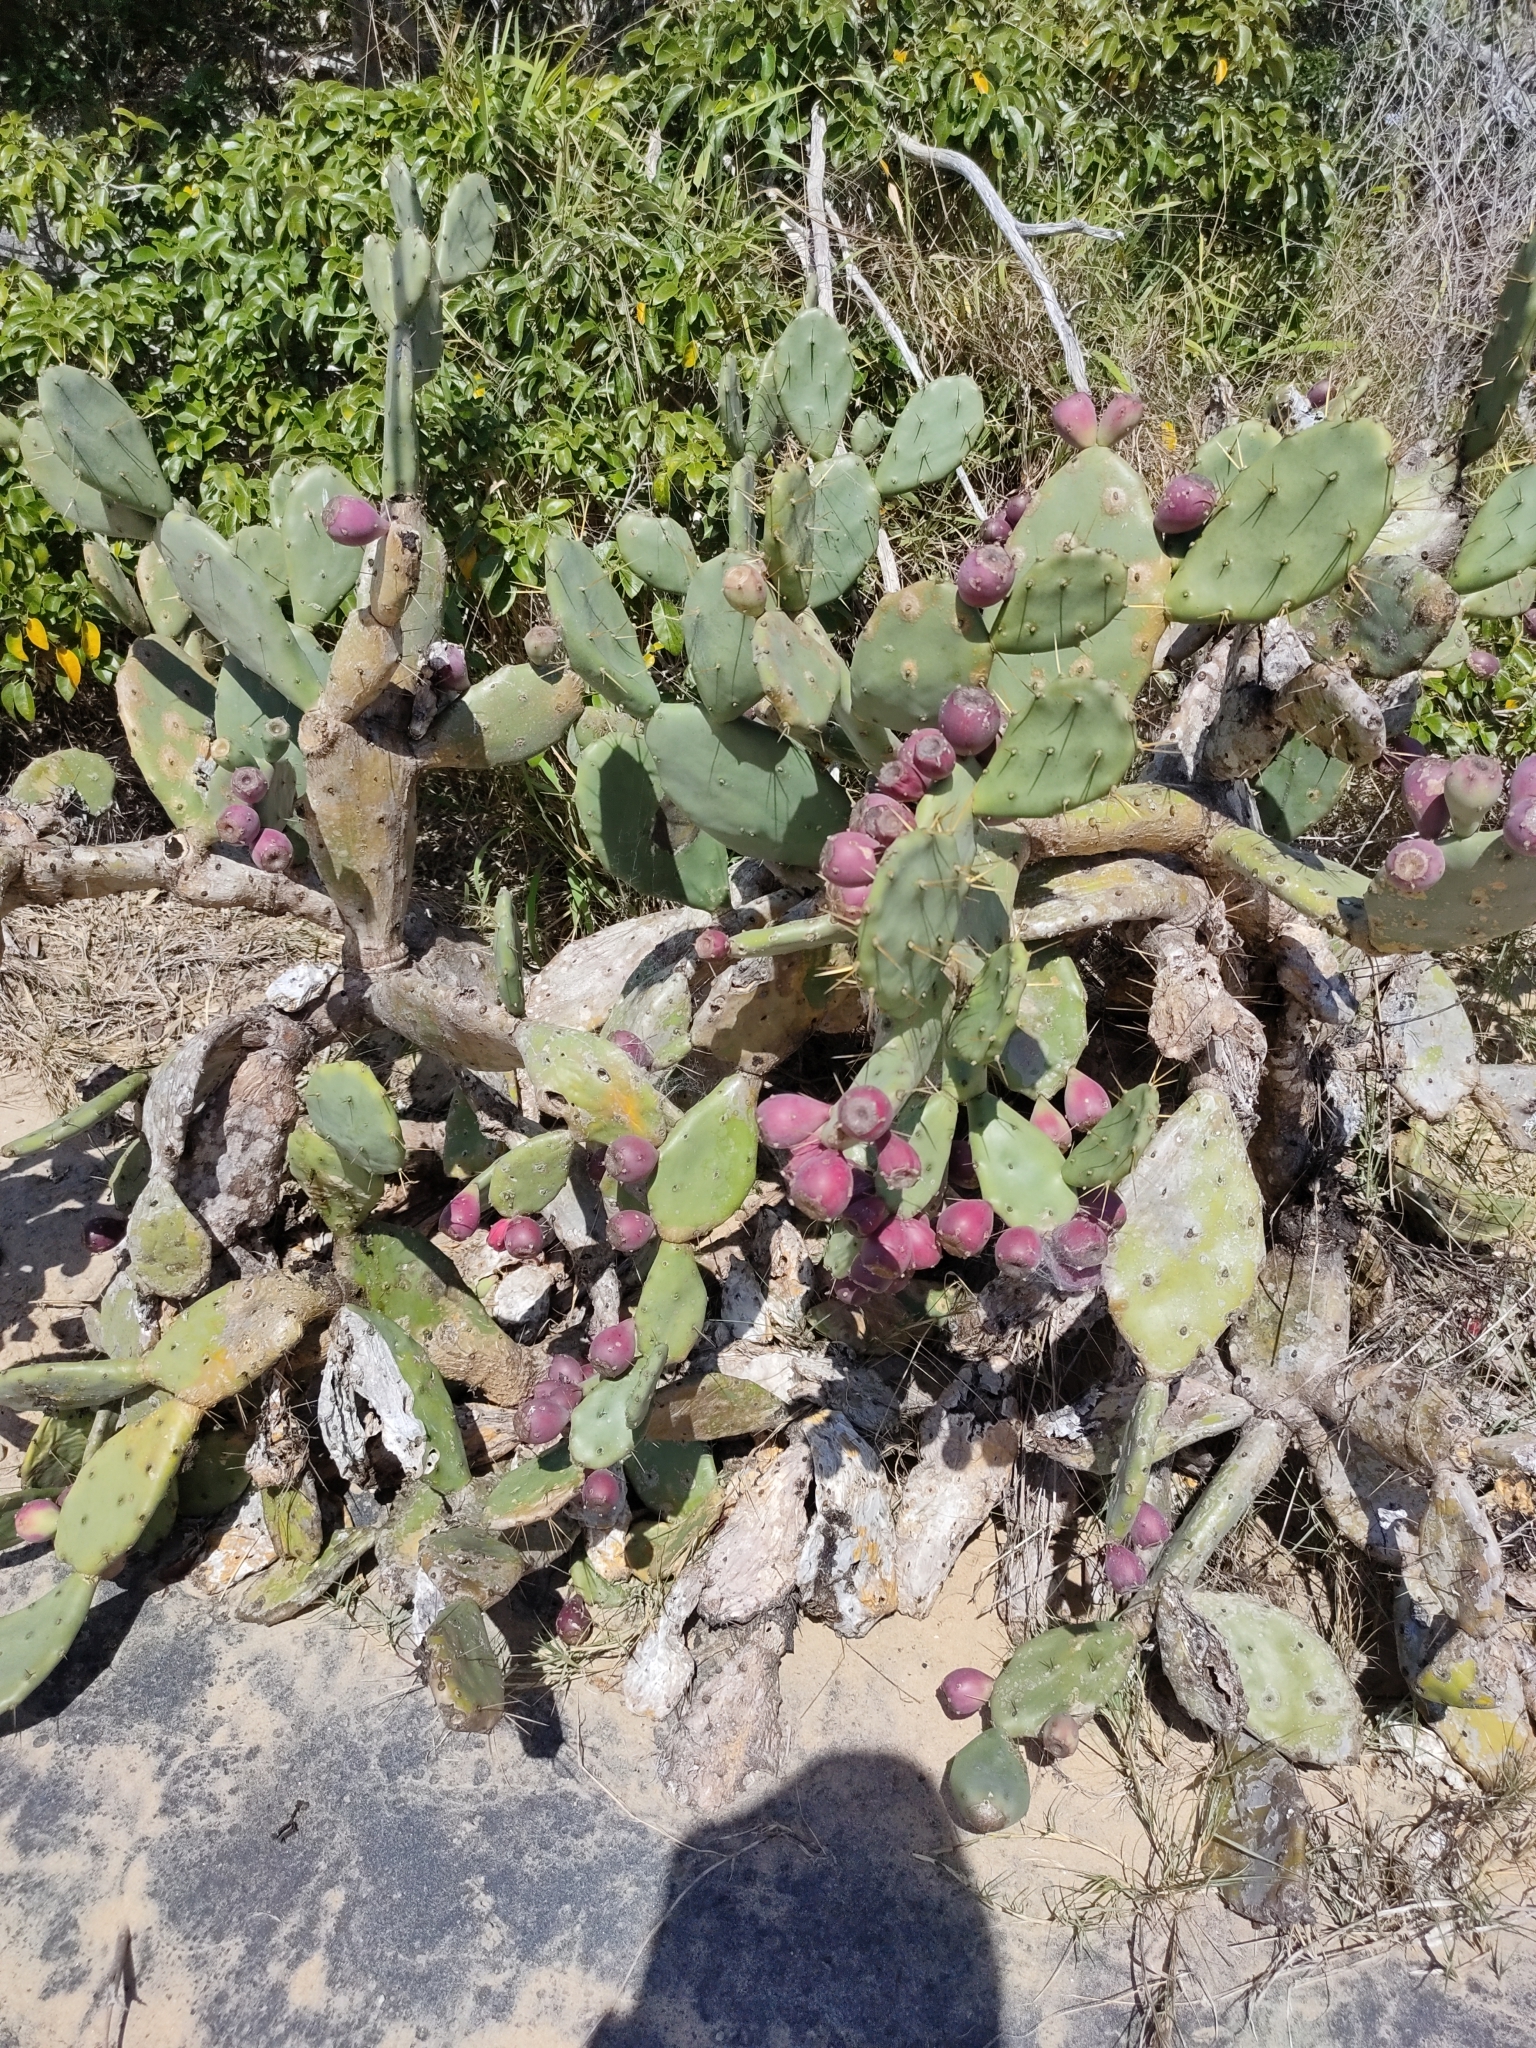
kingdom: Plantae
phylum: Tracheophyta
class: Magnoliopsida
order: Caryophyllales
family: Cactaceae
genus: Opuntia
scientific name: Opuntia stricta
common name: Erect pricklypear
